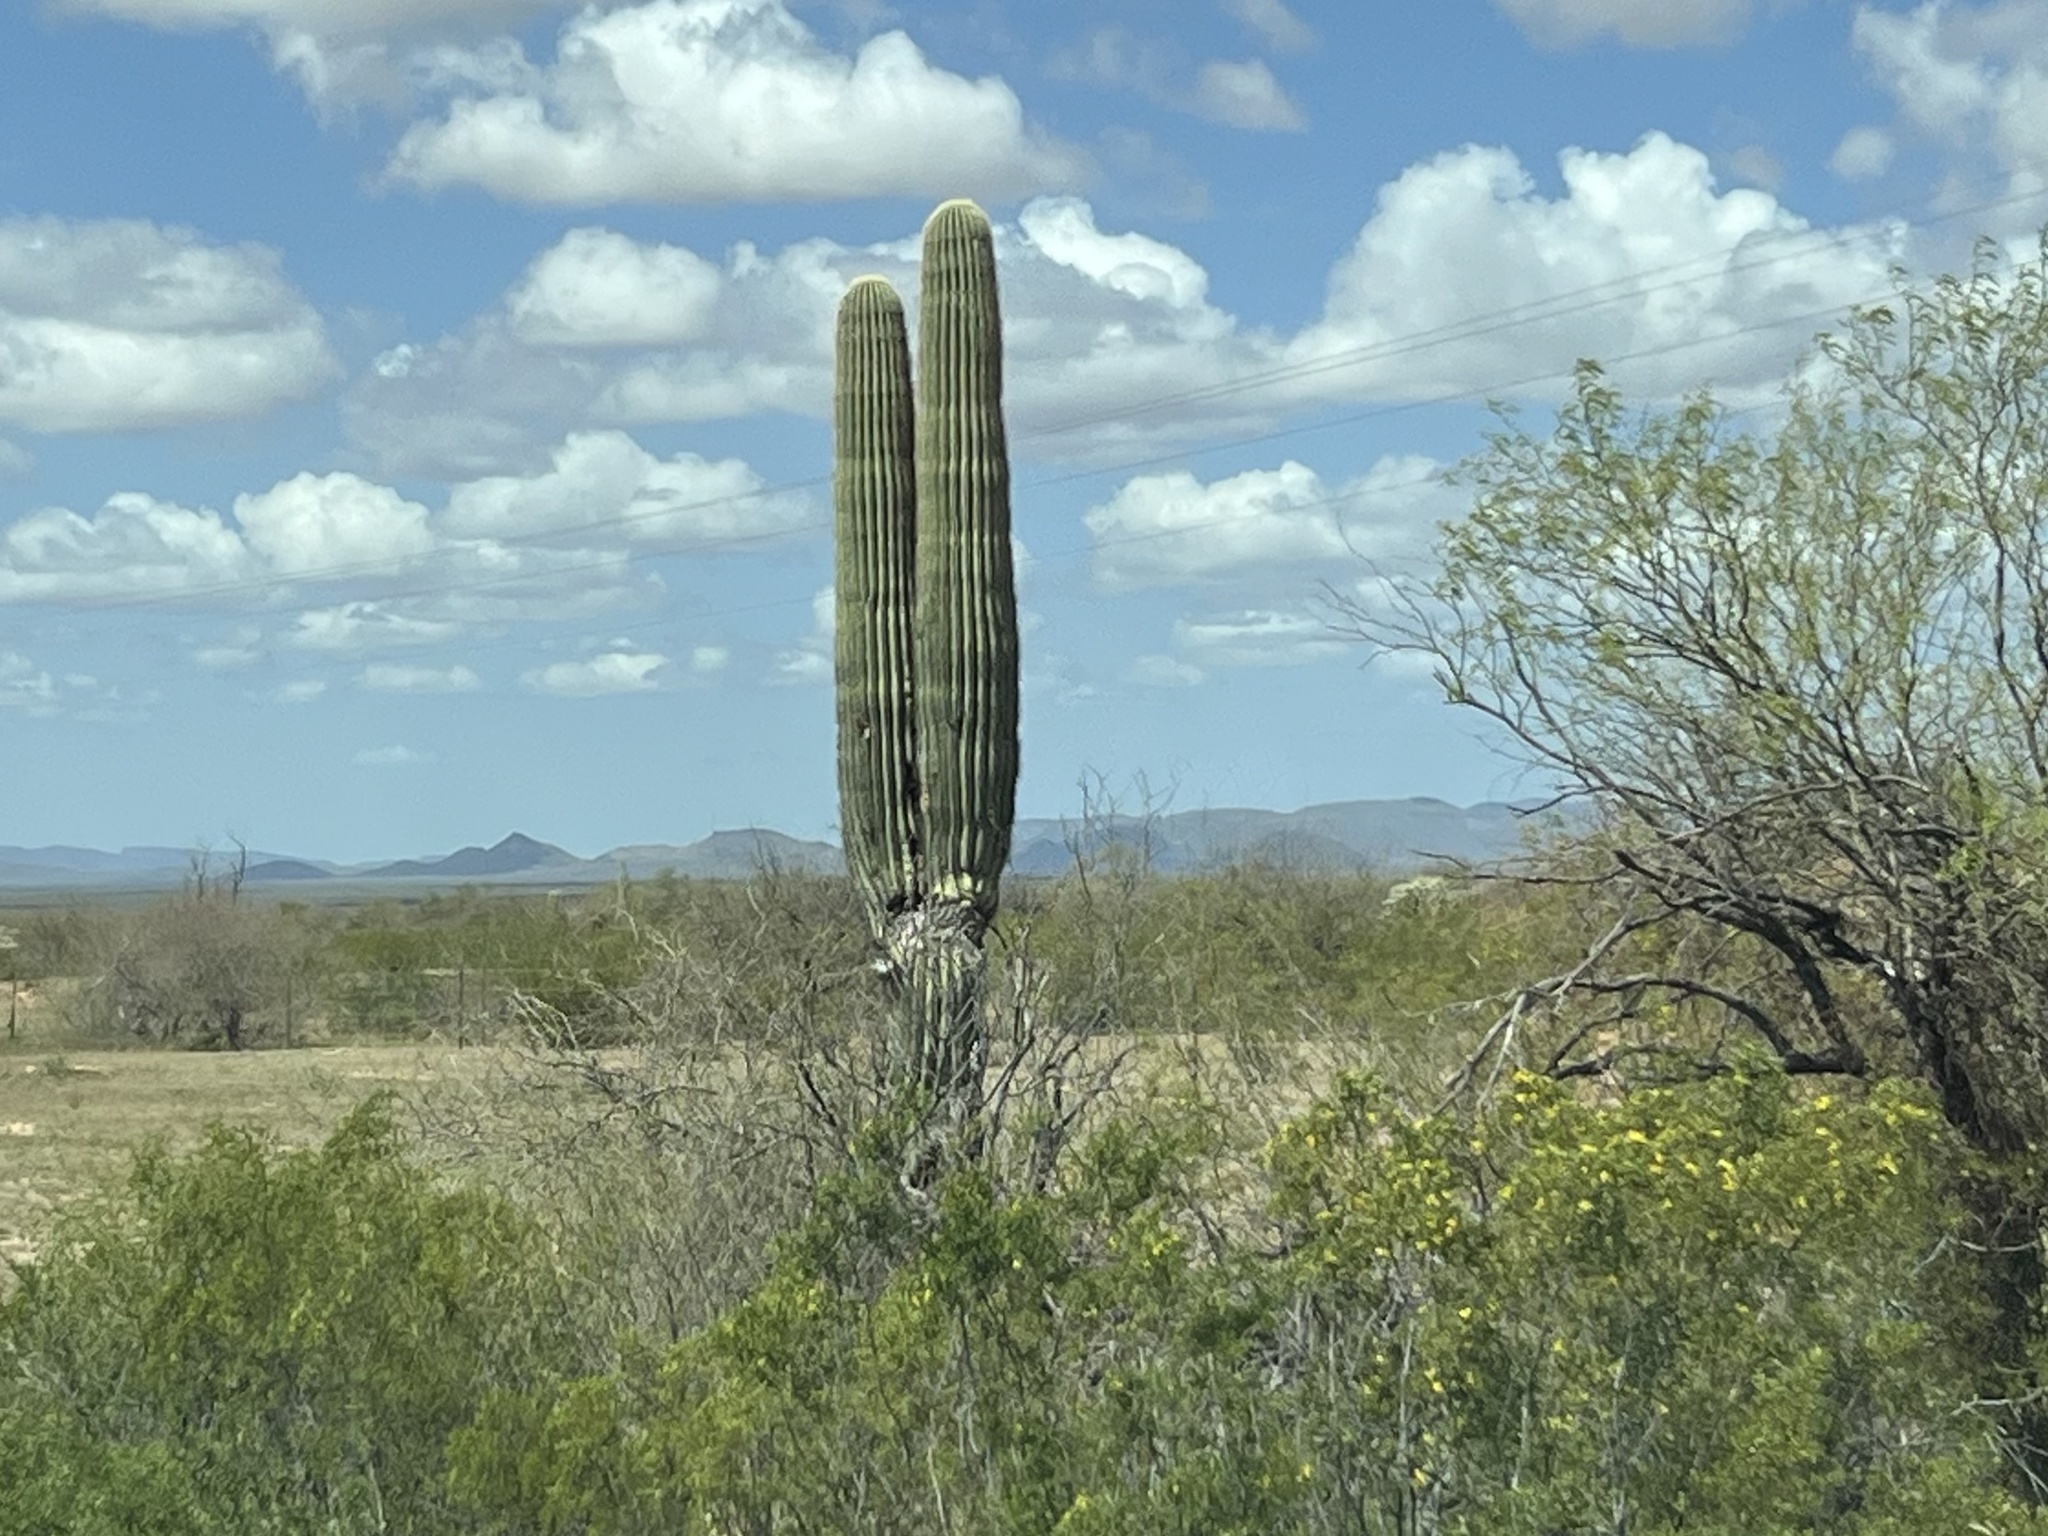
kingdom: Plantae
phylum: Tracheophyta
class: Magnoliopsida
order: Caryophyllales
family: Cactaceae
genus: Carnegiea
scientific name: Carnegiea gigantea
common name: Saguaro
